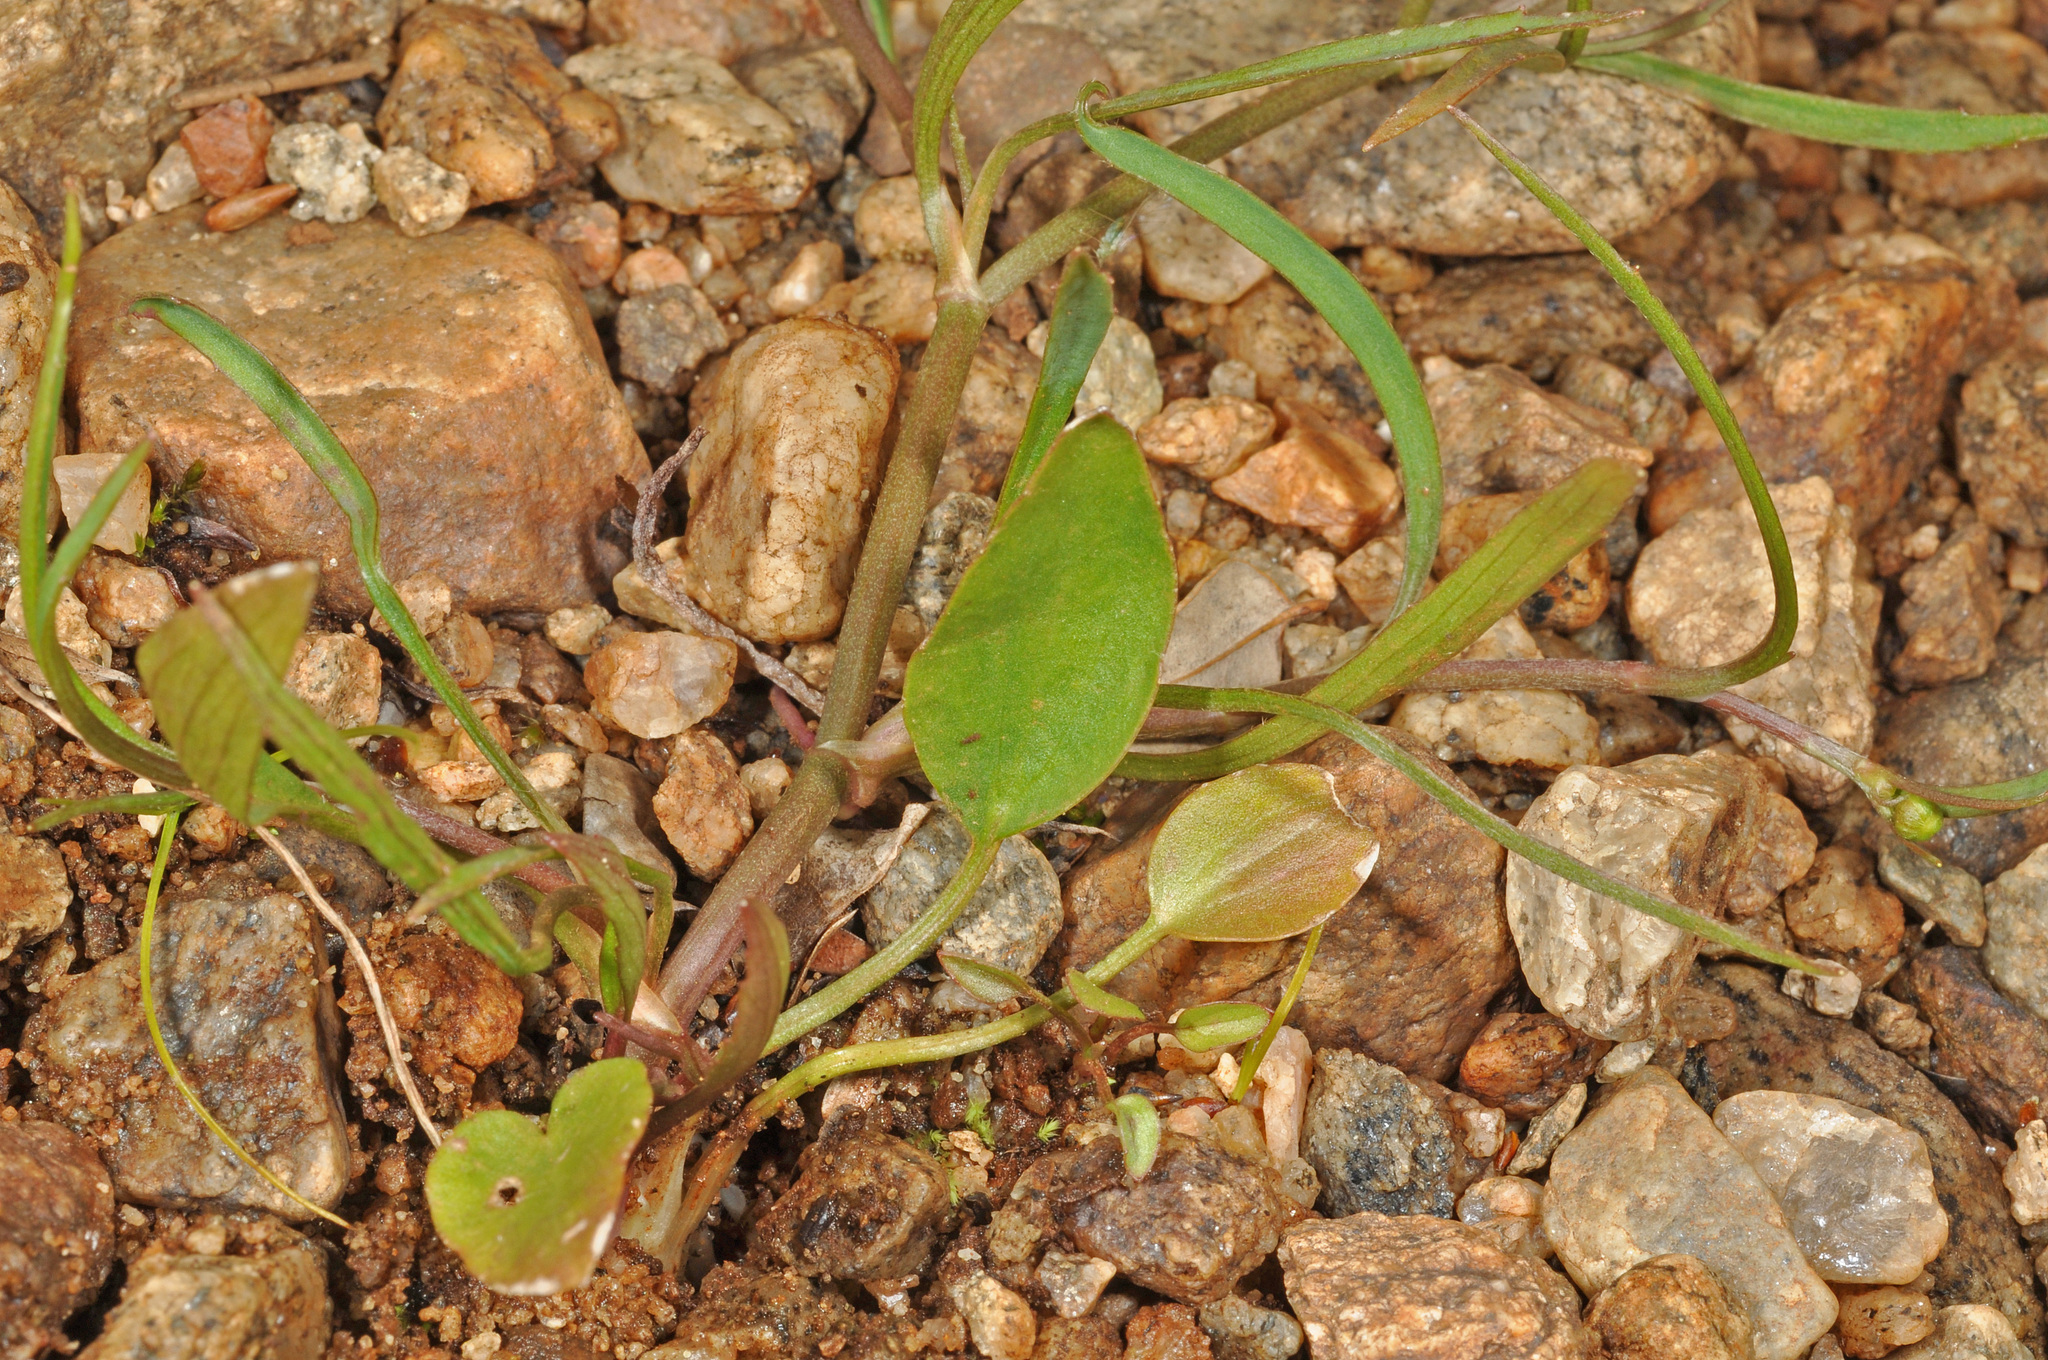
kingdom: Plantae
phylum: Tracheophyta
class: Magnoliopsida
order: Ranunculales
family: Ranunculaceae
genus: Ranunculus
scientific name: Ranunculus flammula
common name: Lesser spearwort
